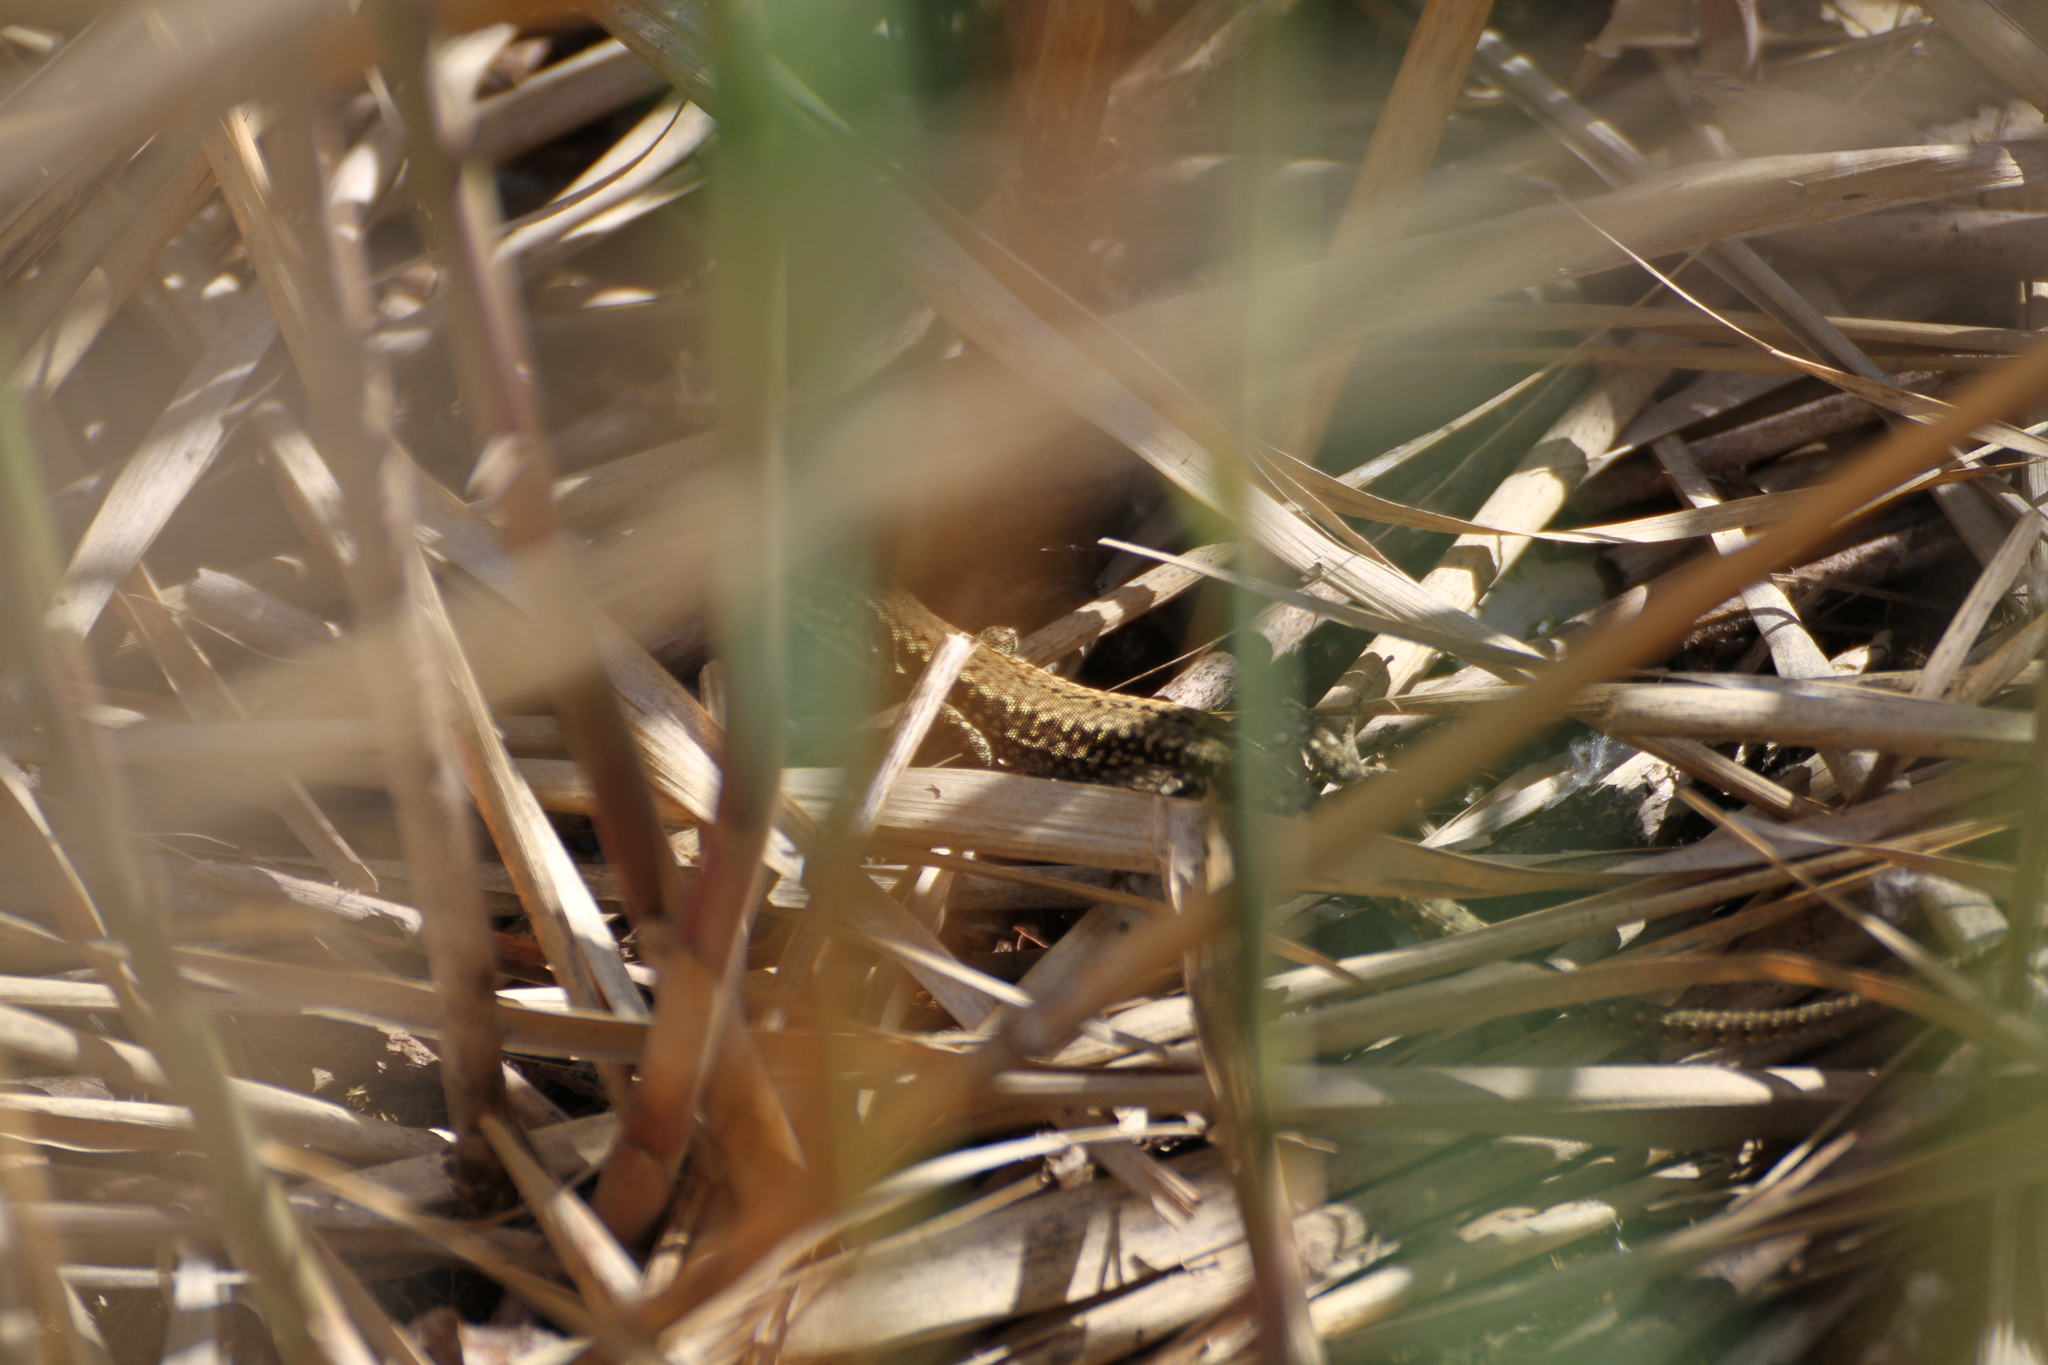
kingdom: Animalia
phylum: Chordata
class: Squamata
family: Lacertidae
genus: Podarcis
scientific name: Podarcis muralis
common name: Common wall lizard
